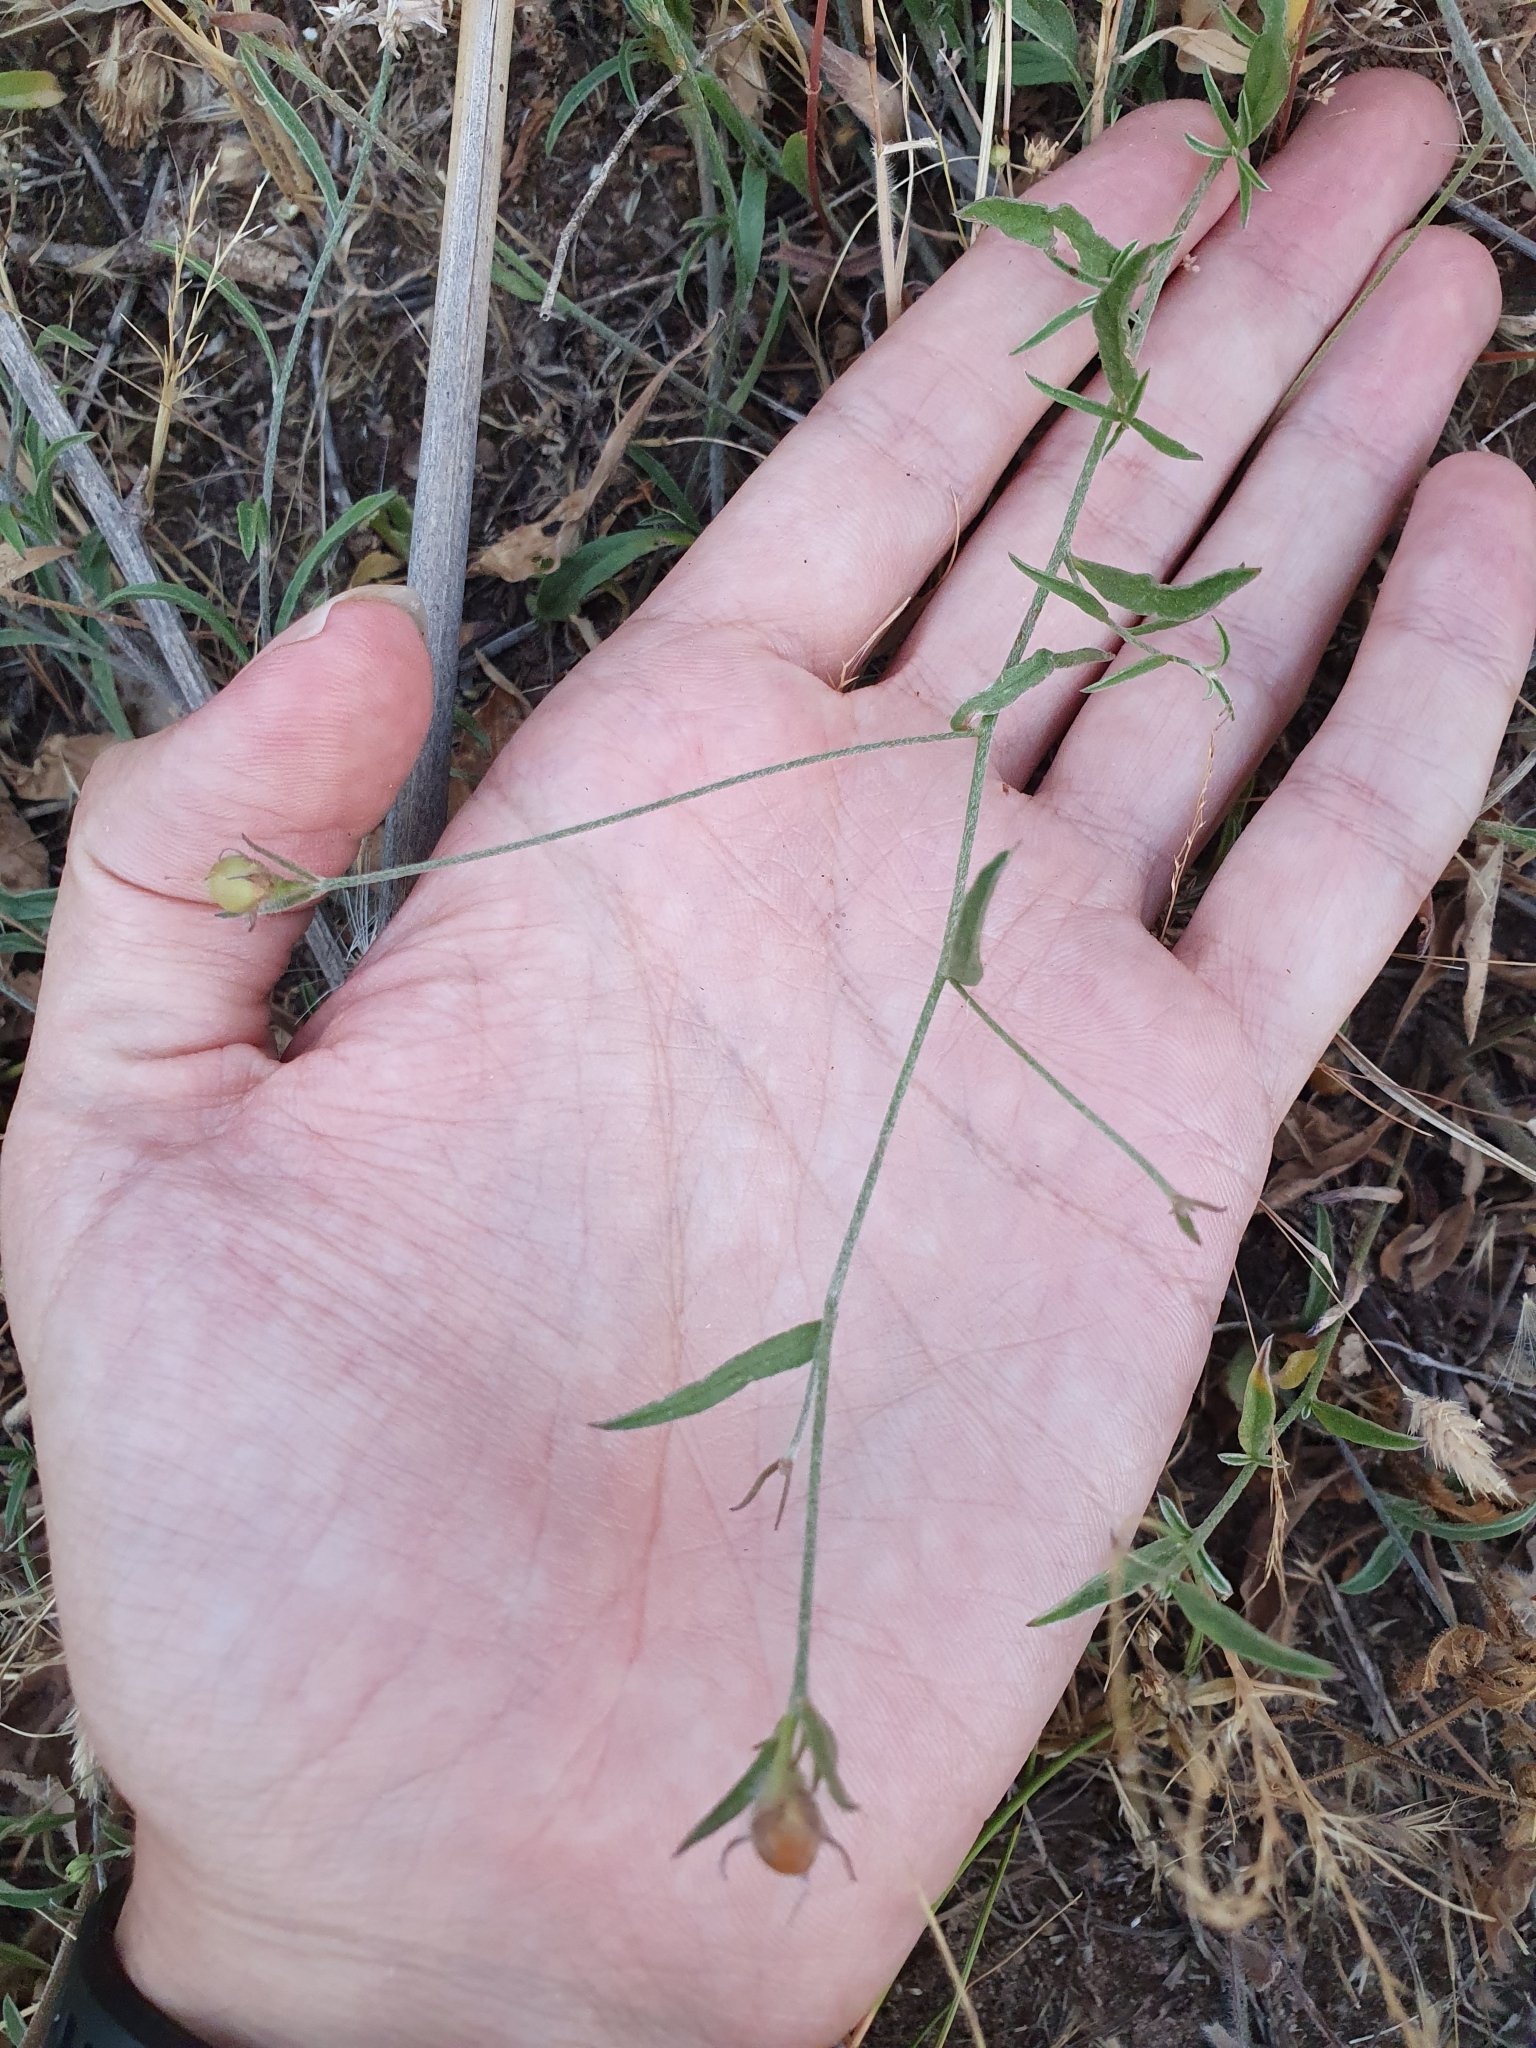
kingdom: Plantae
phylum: Tracheophyta
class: Magnoliopsida
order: Solanales
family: Convolvulaceae
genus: Convolvulus
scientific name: Convolvulus cantabrica
